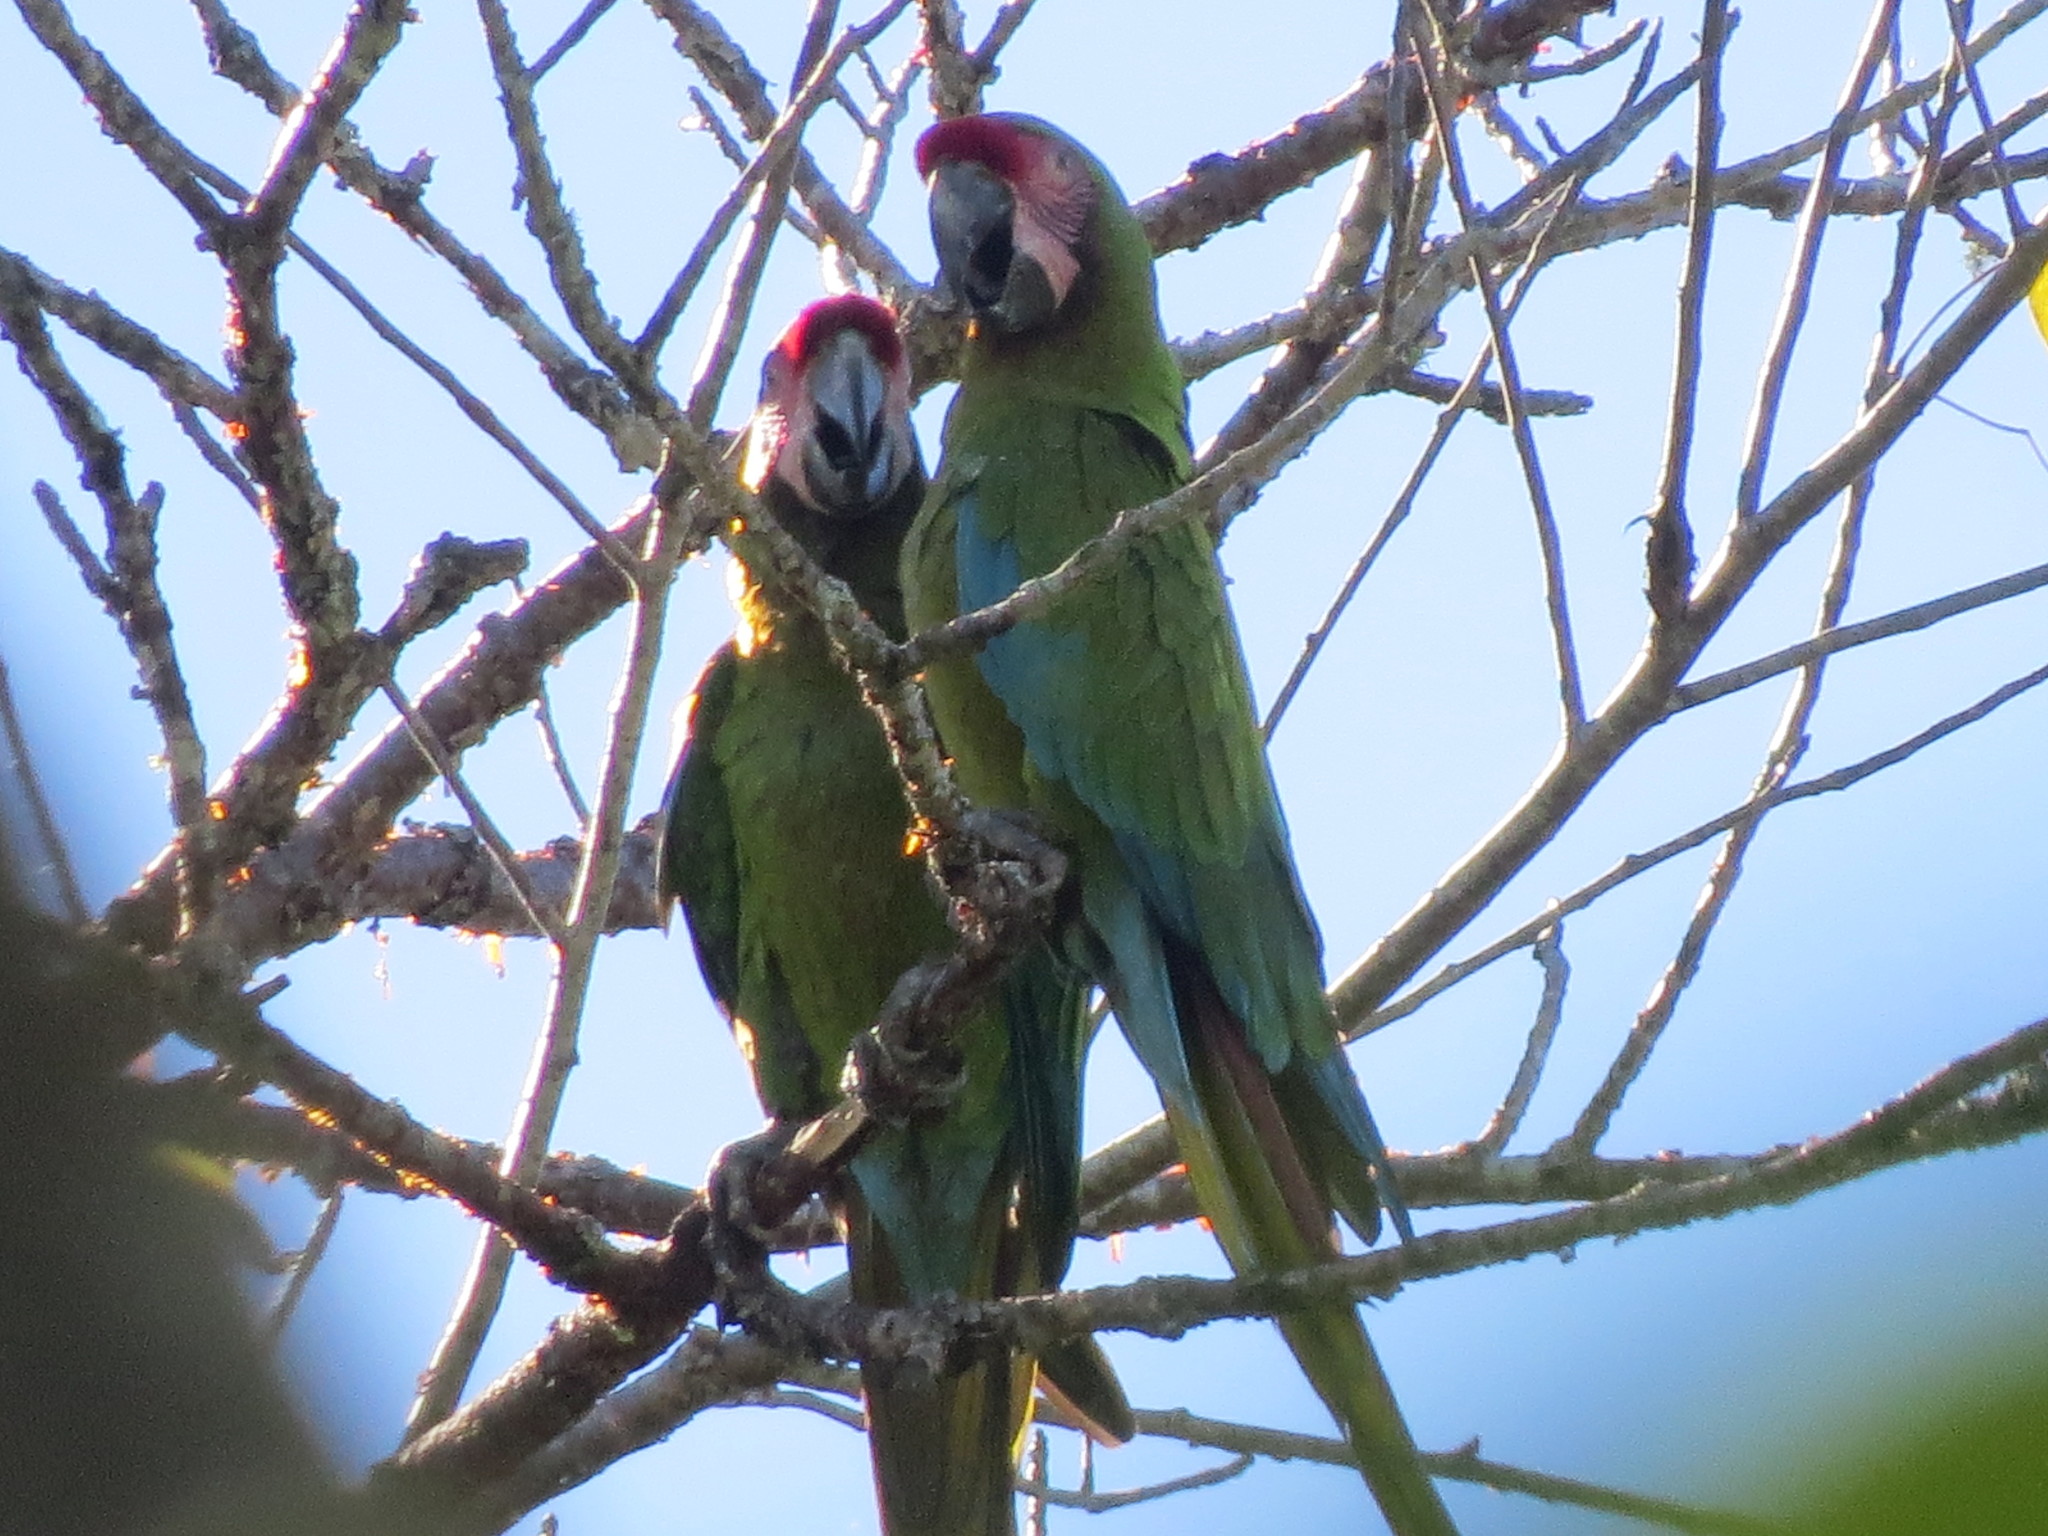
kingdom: Animalia
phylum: Chordata
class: Aves
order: Psittaciformes
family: Psittacidae
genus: Ara
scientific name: Ara militaris
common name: Military macaw
